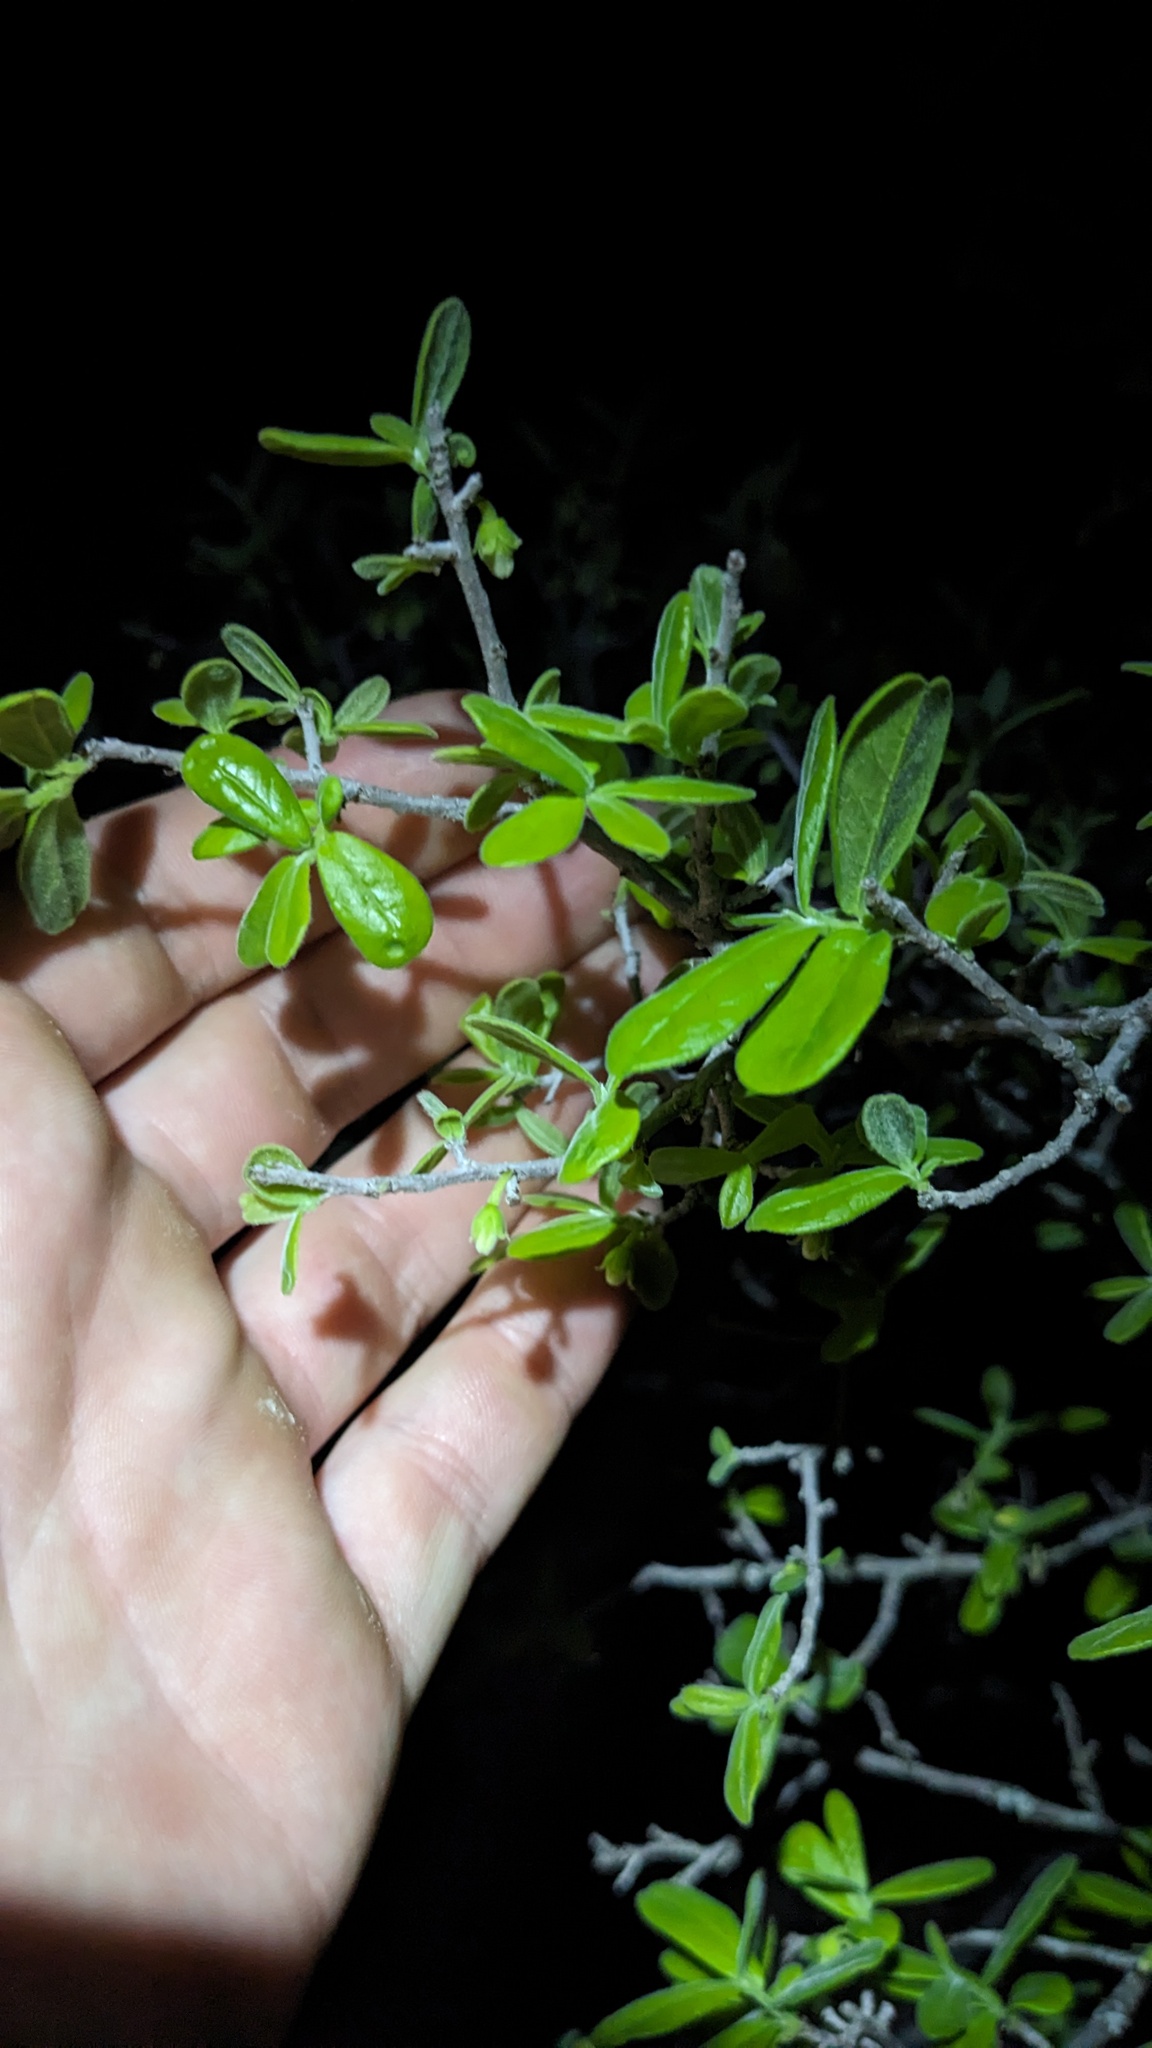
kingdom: Plantae
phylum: Tracheophyta
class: Magnoliopsida
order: Ericales
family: Ebenaceae
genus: Diospyros
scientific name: Diospyros texana
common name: Texas persimmon
